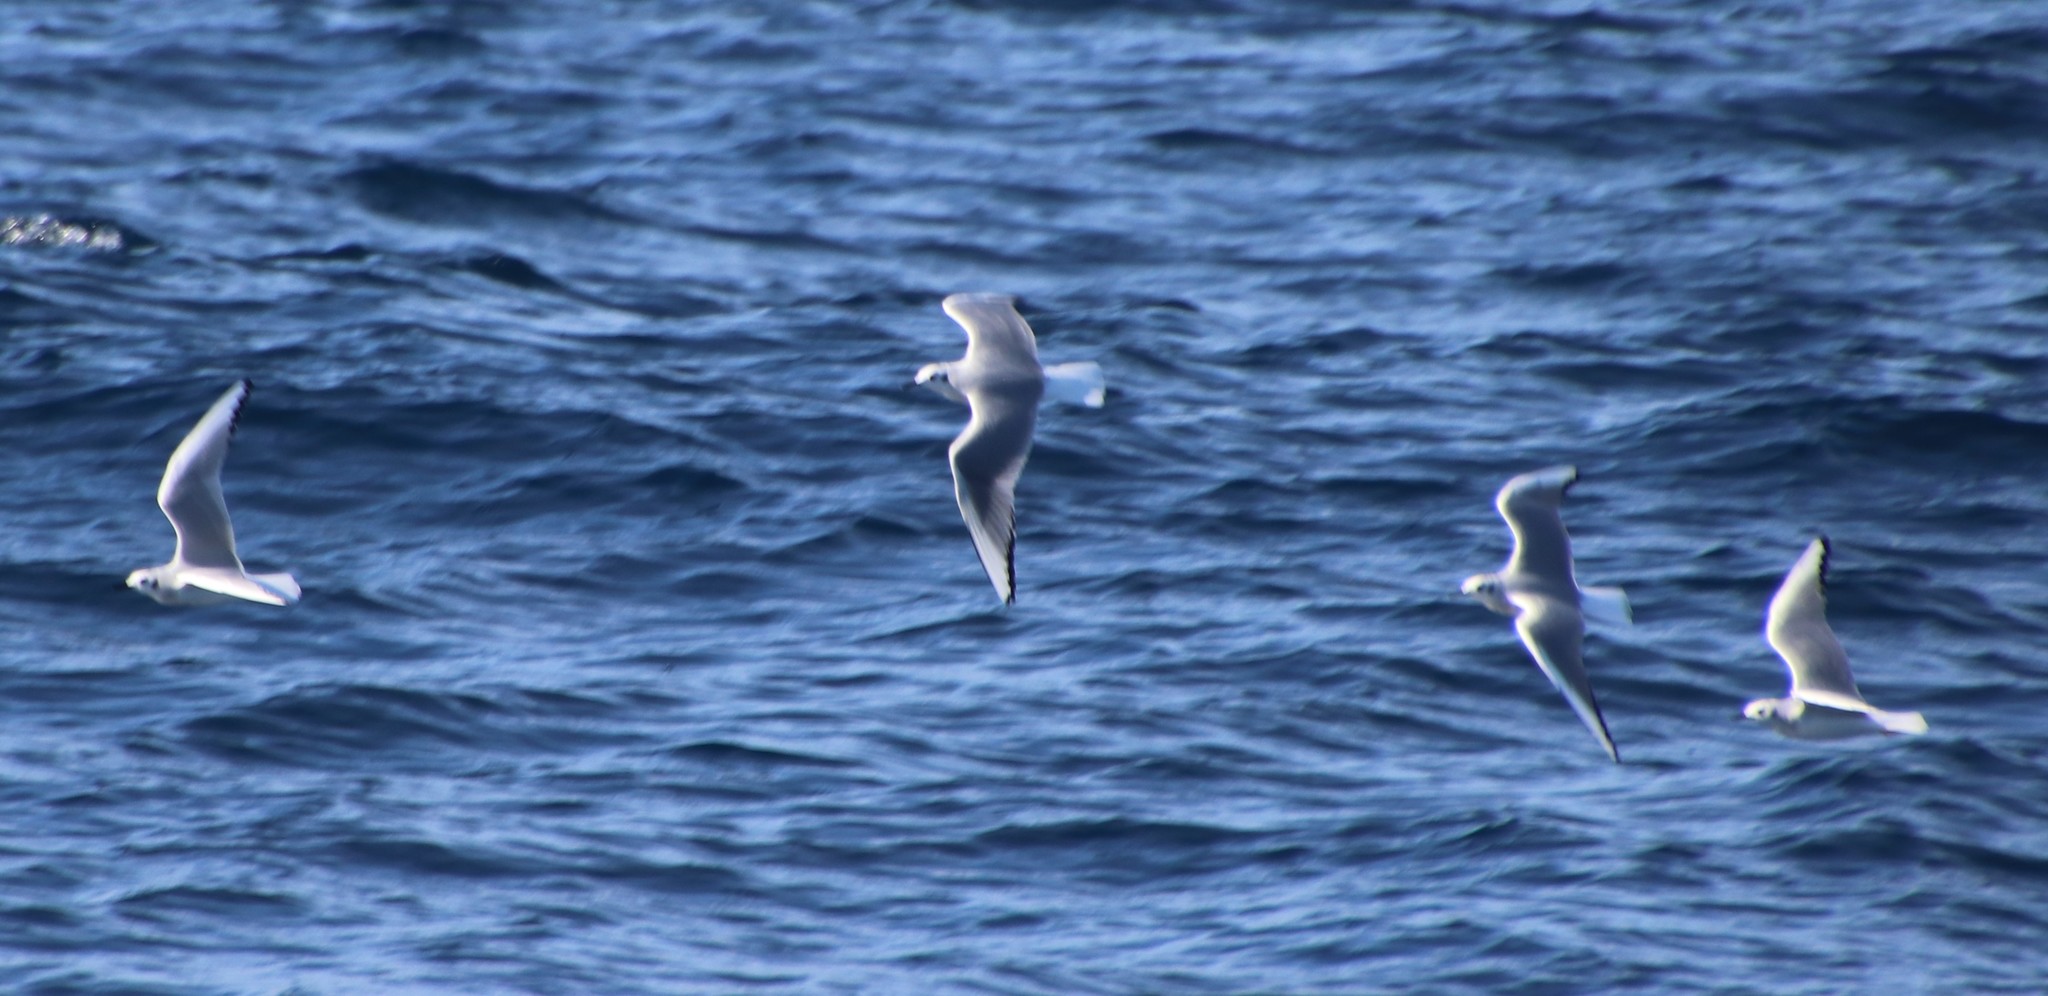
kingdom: Animalia
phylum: Chordata
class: Aves
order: Charadriiformes
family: Laridae
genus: Chroicocephalus
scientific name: Chroicocephalus philadelphia
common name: Bonaparte's gull
